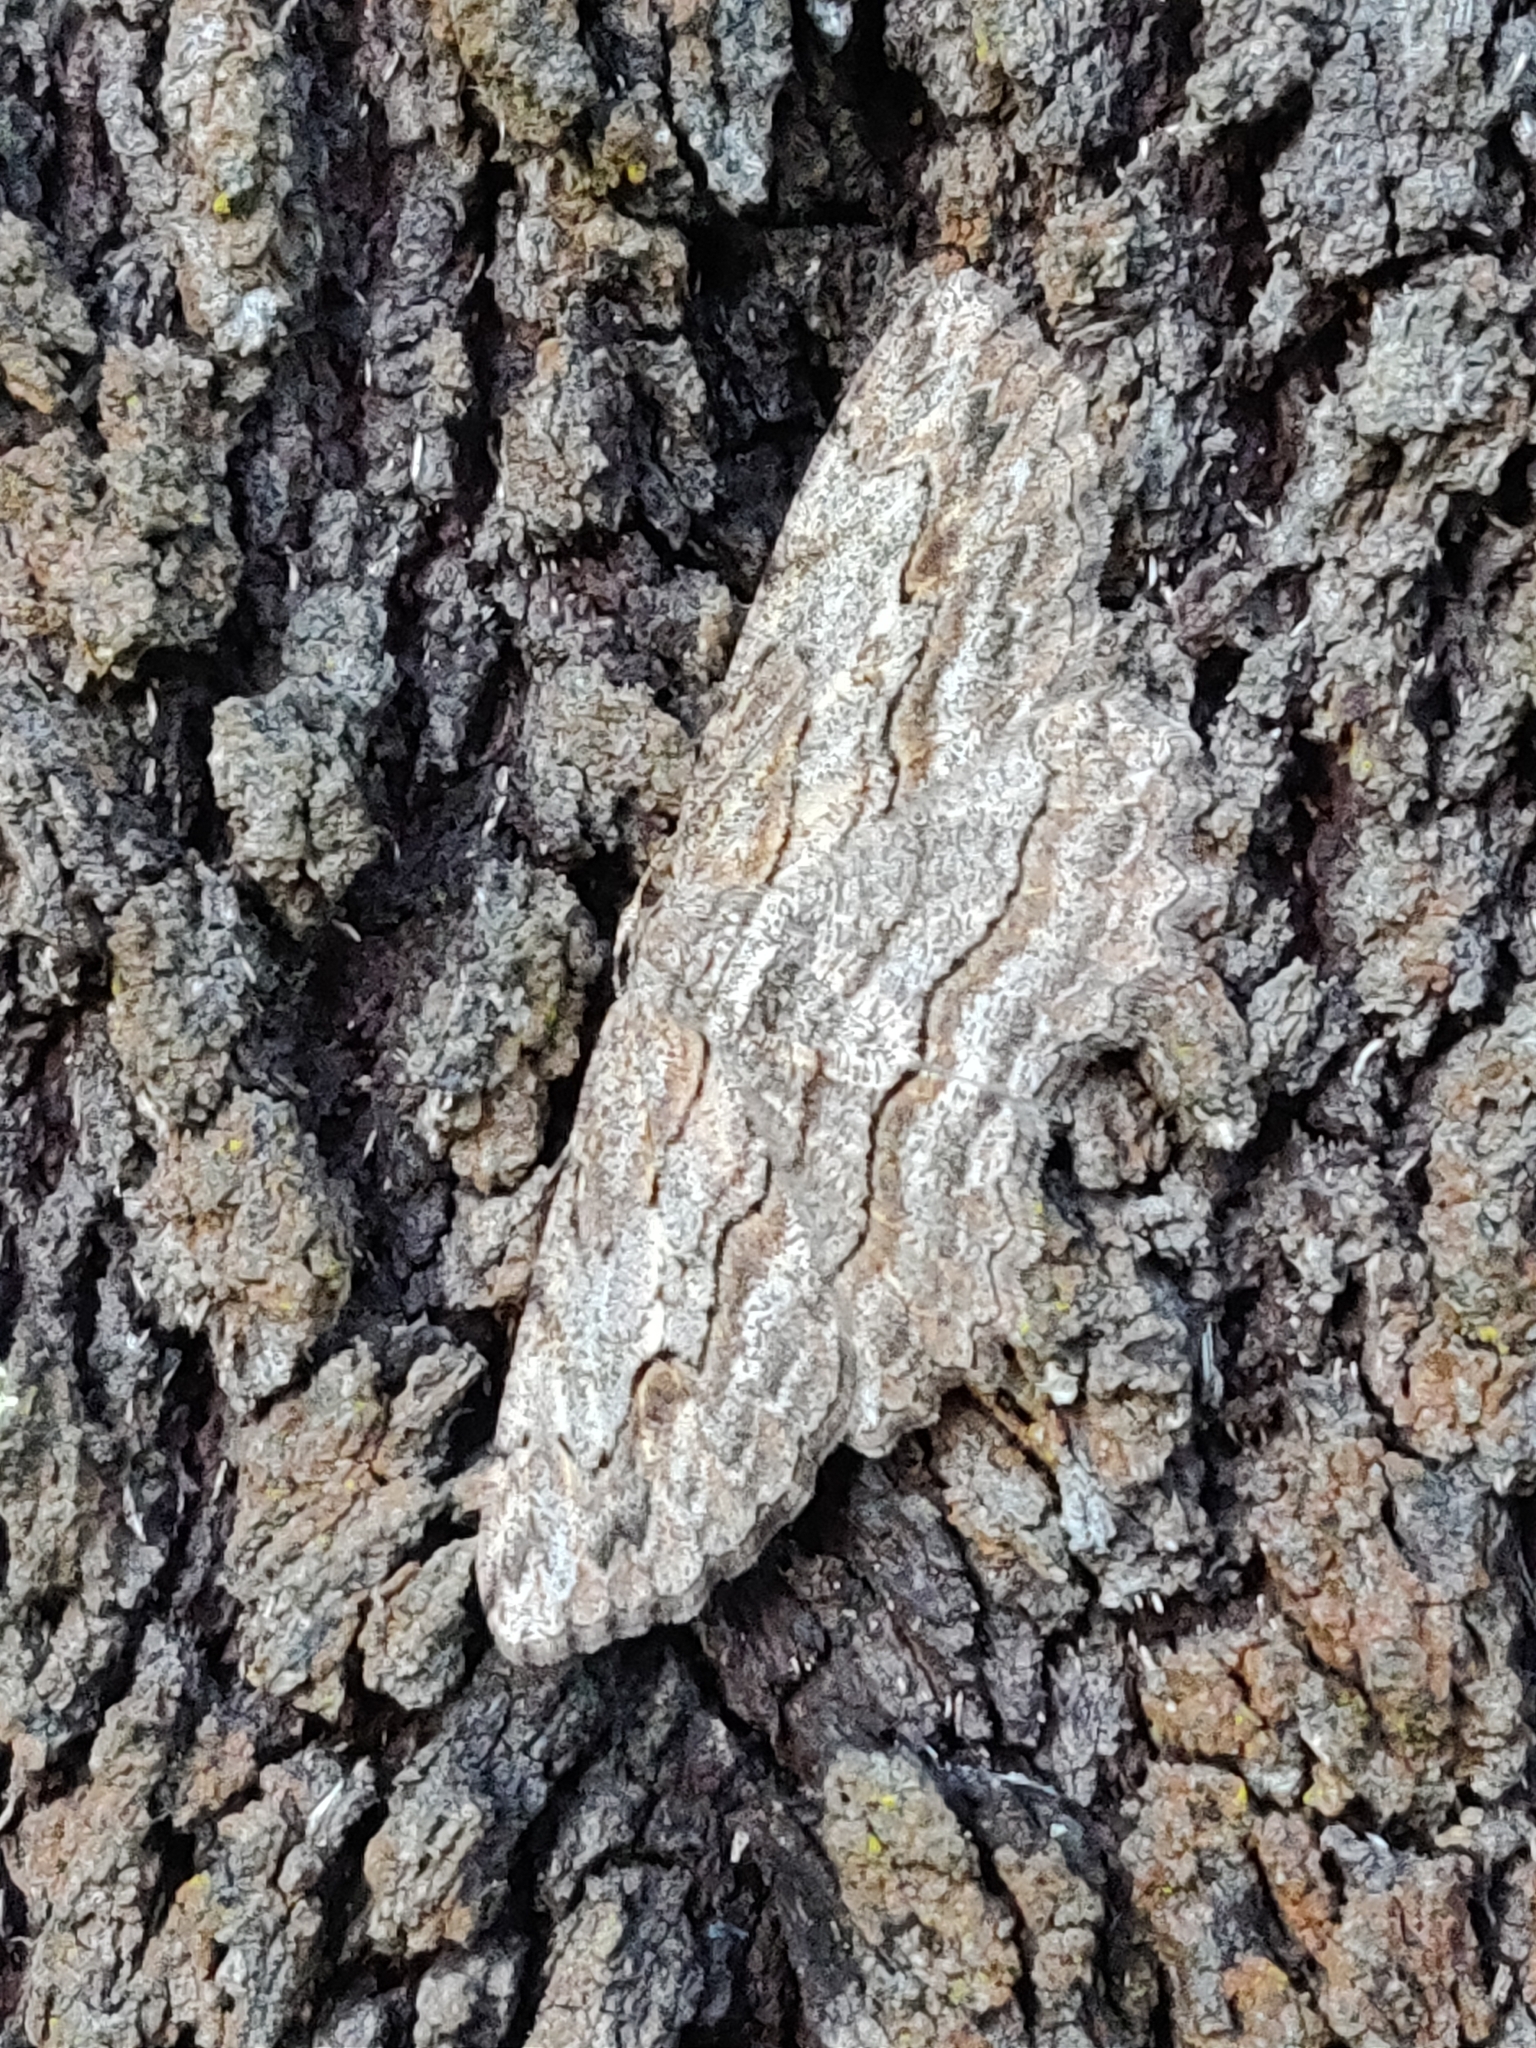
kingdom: Animalia
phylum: Arthropoda
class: Insecta
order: Lepidoptera
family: Geometridae
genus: Ectropis
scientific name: Ectropis excursaria
